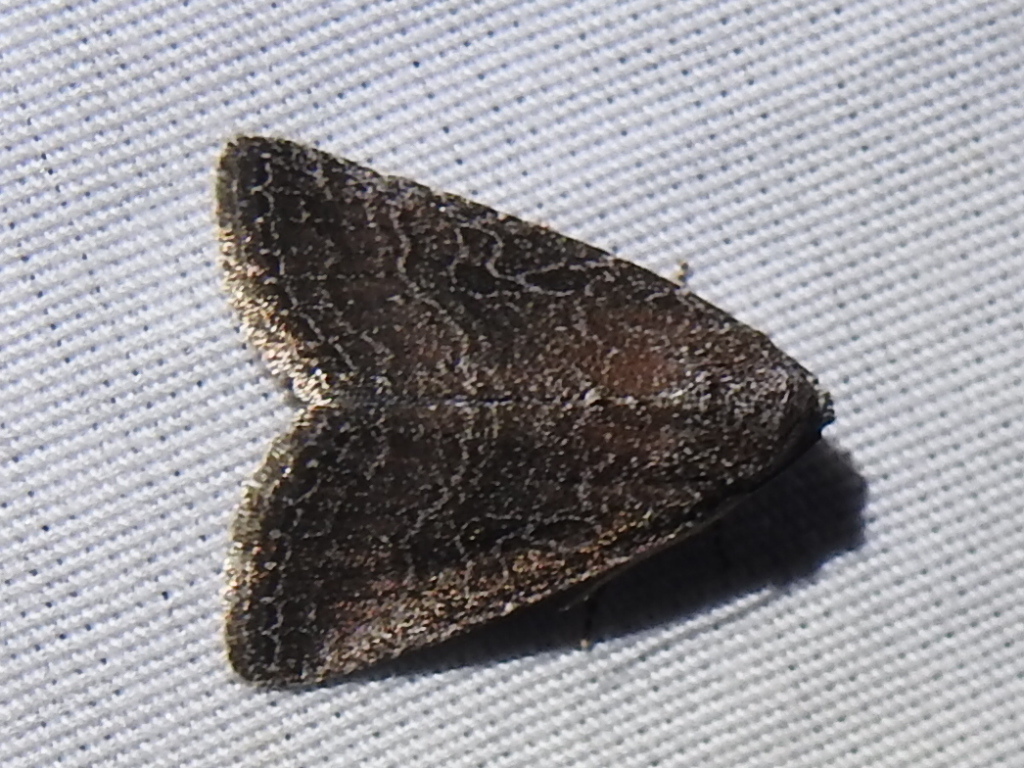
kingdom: Animalia
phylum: Arthropoda
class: Insecta
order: Lepidoptera
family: Noctuidae
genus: Ogdoconta
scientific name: Ogdoconta tacna
